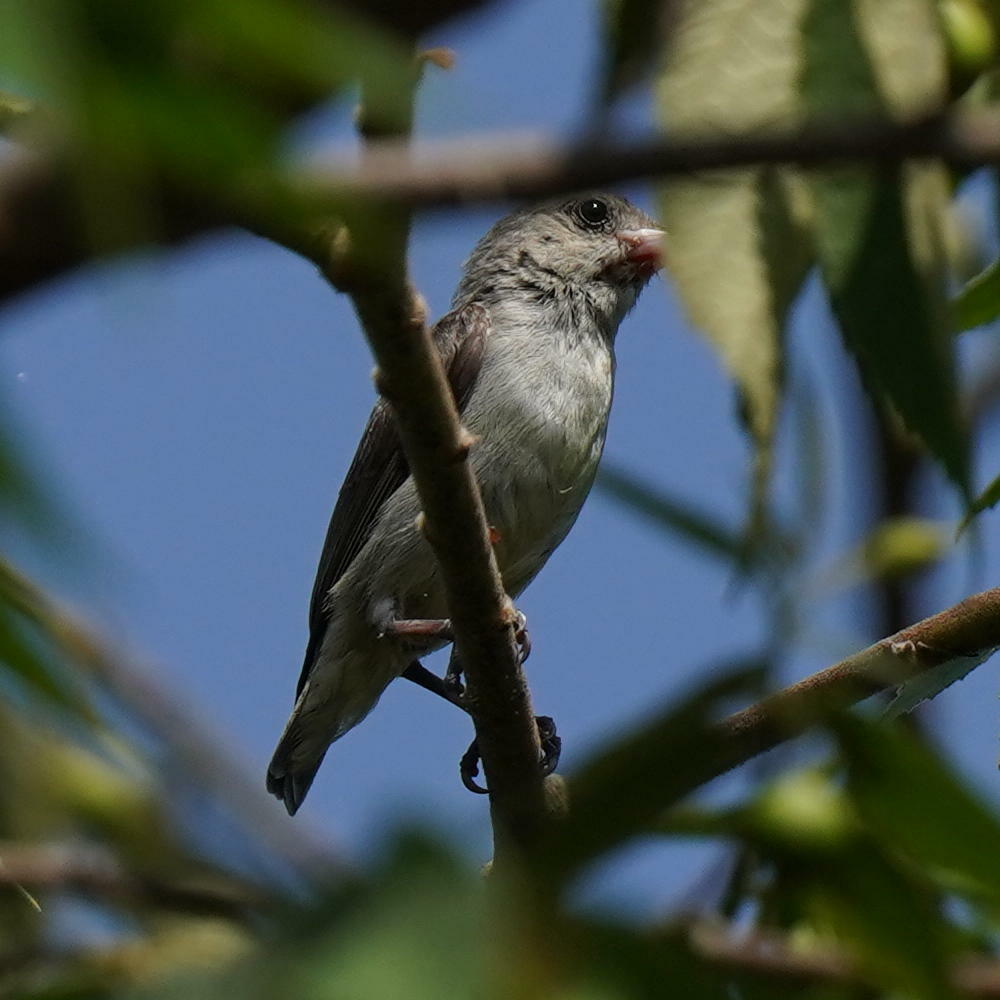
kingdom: Animalia
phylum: Chordata
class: Aves
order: Passeriformes
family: Dicaeidae
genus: Dicaeum
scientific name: Dicaeum erythrorhynchos
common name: Pale-billed flowerpecker
